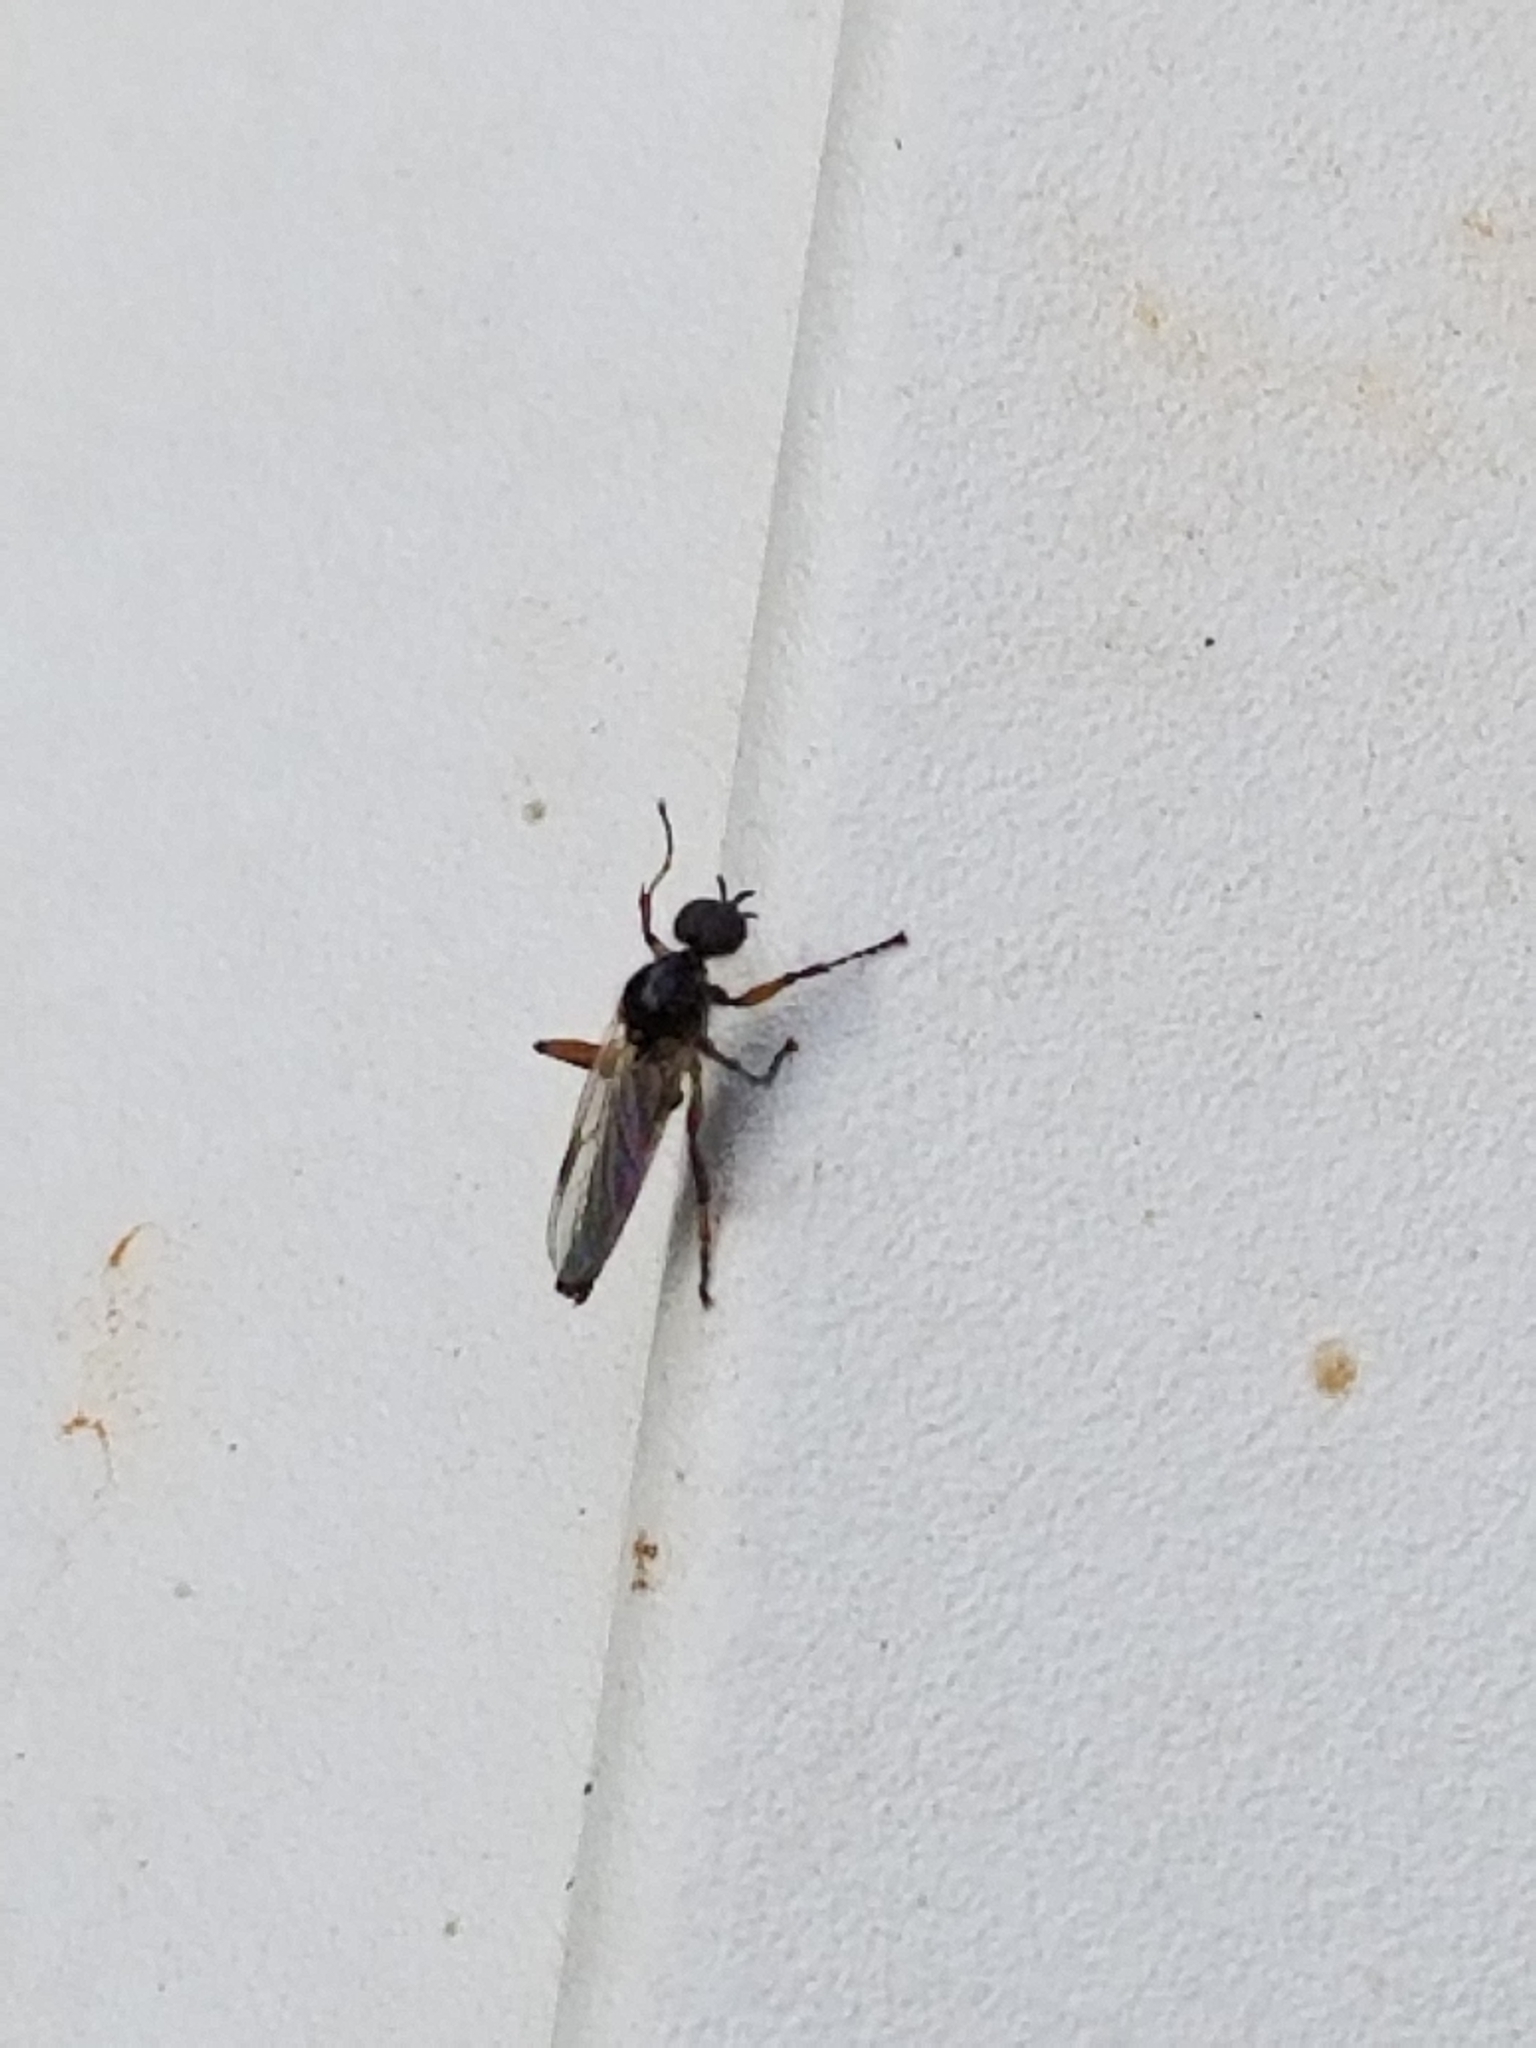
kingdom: Animalia
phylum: Arthropoda
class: Insecta
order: Diptera
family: Bibionidae
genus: Bibio
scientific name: Bibio articulatus
